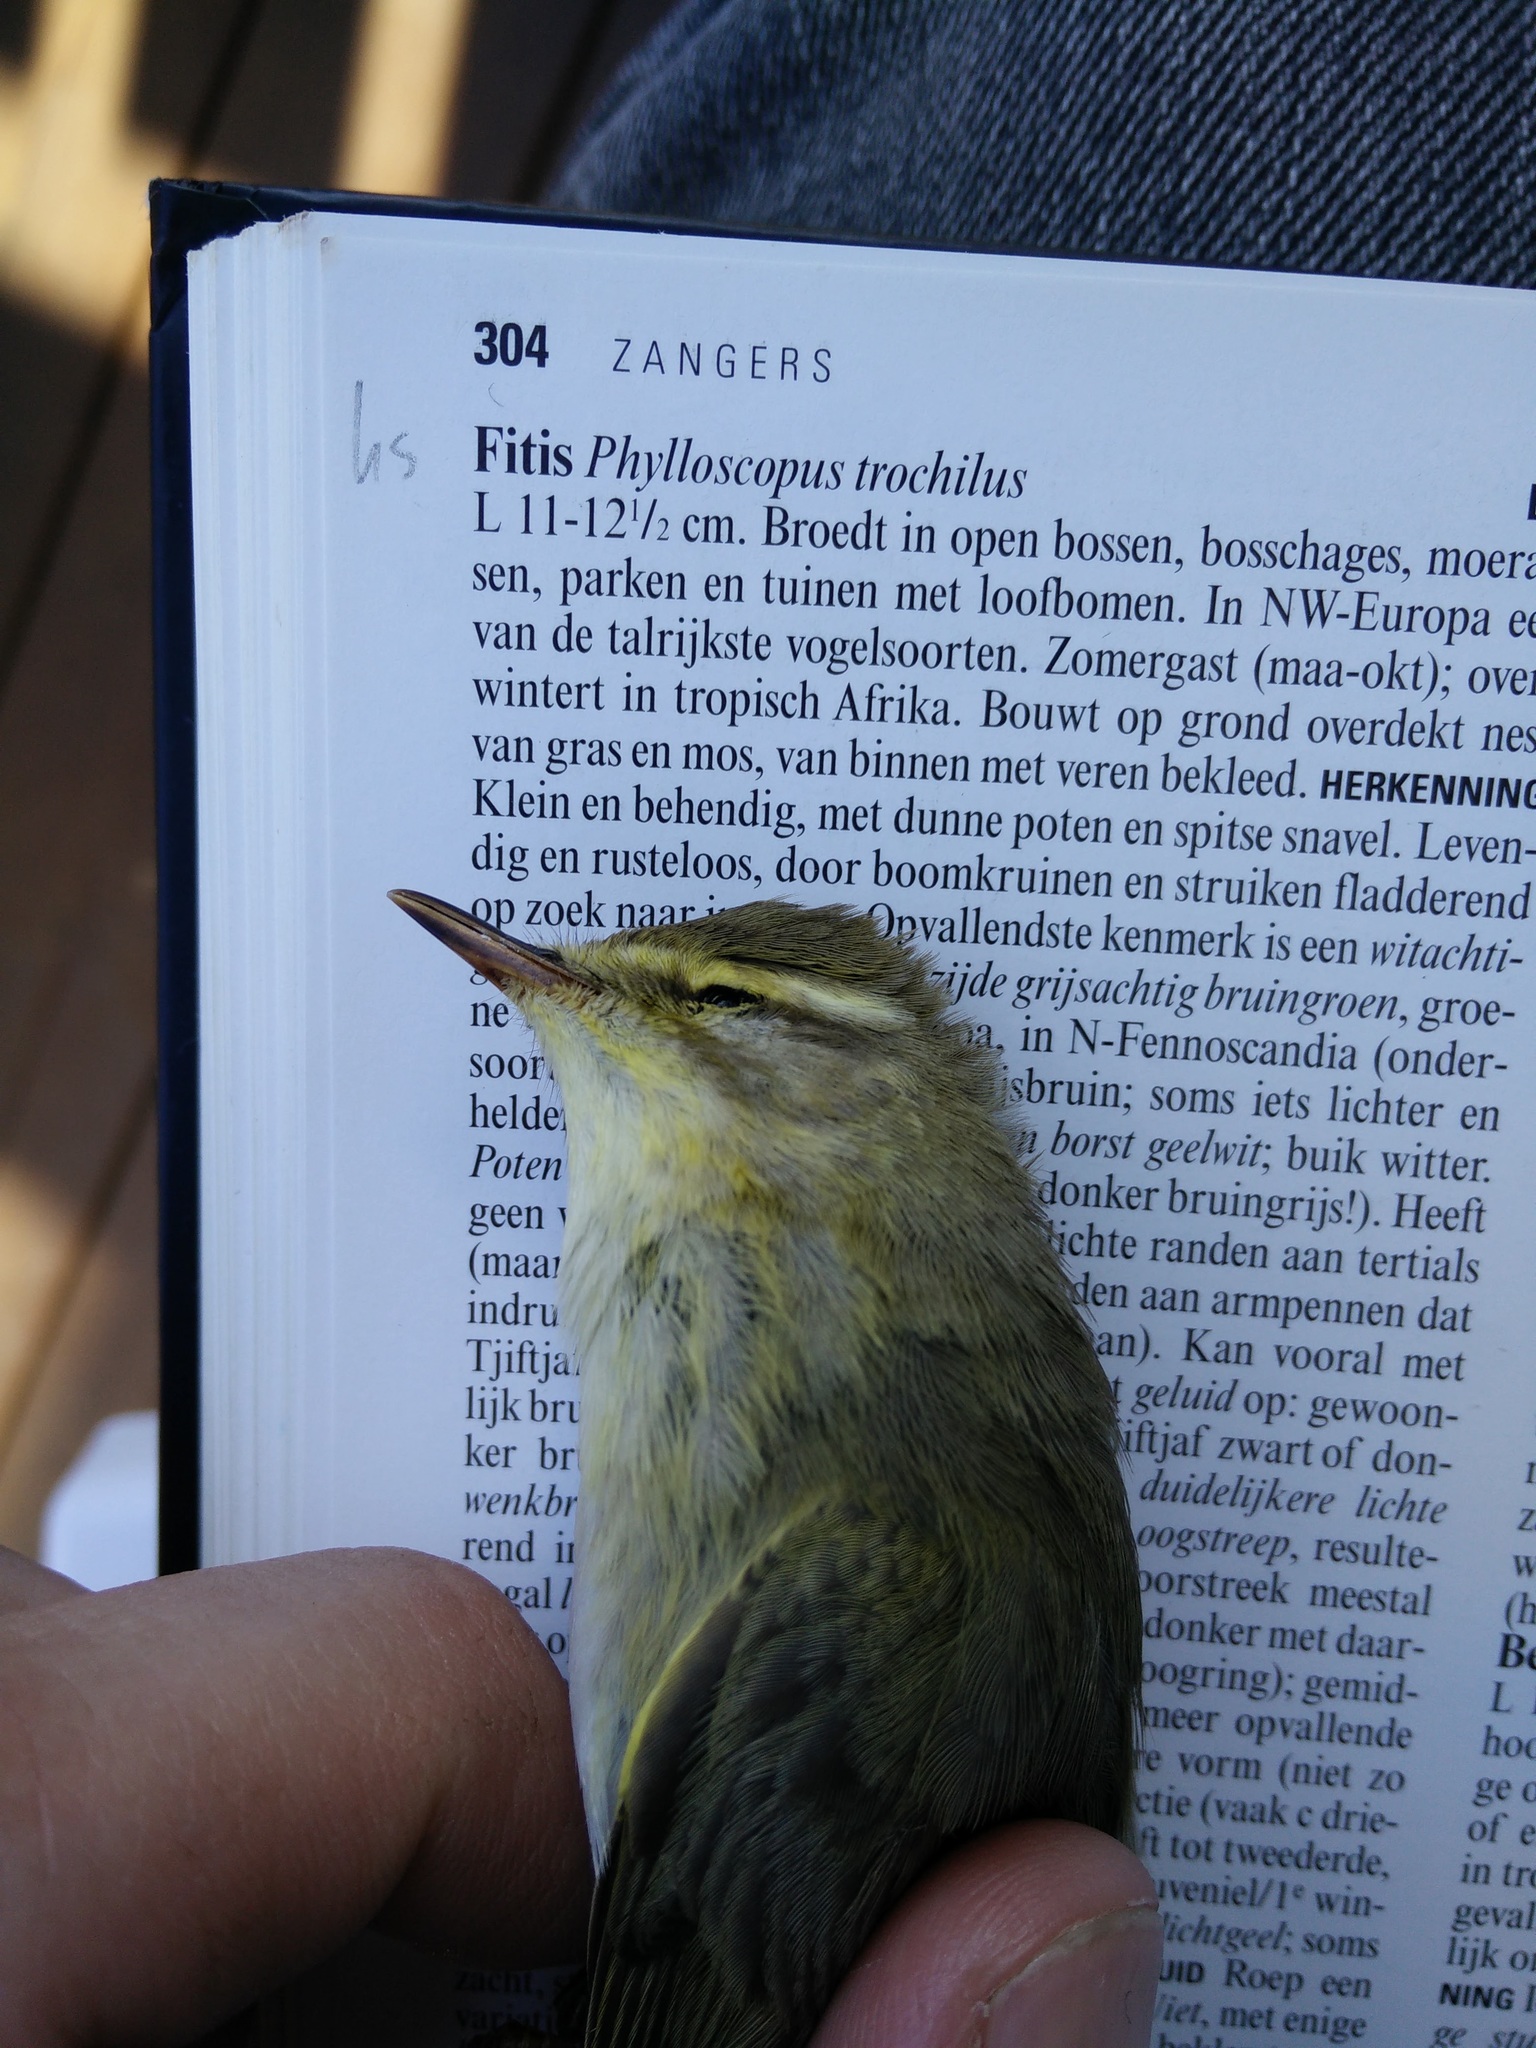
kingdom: Animalia
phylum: Chordata
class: Aves
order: Passeriformes
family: Phylloscopidae
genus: Phylloscopus
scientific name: Phylloscopus trochilus
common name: Willow warbler
